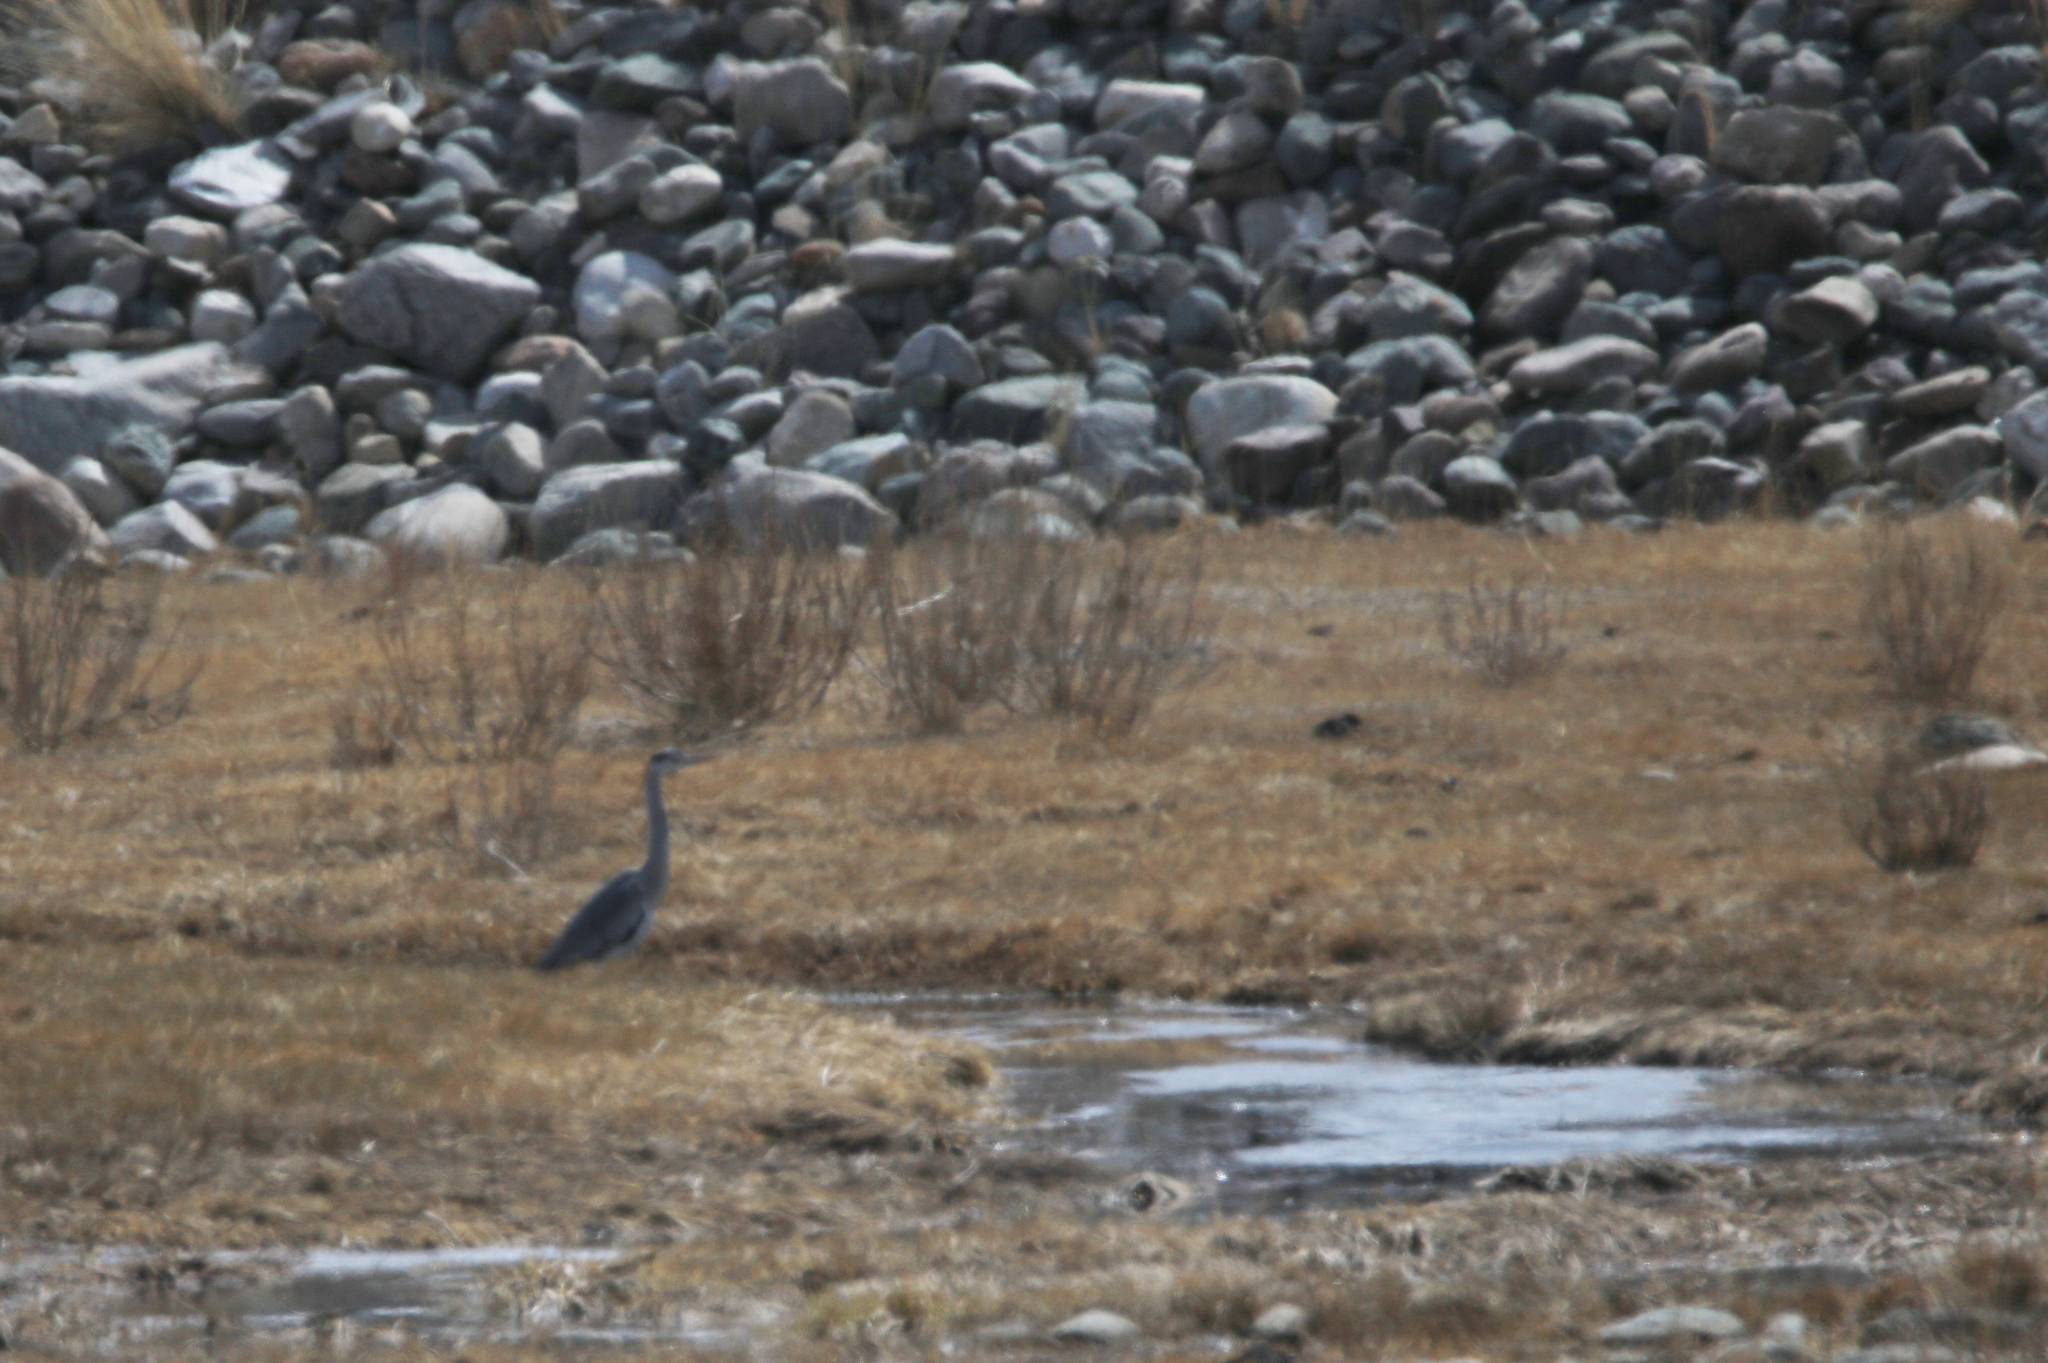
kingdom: Animalia
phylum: Chordata
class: Aves
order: Pelecaniformes
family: Ardeidae
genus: Ardea
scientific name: Ardea cinerea
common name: Grey heron
